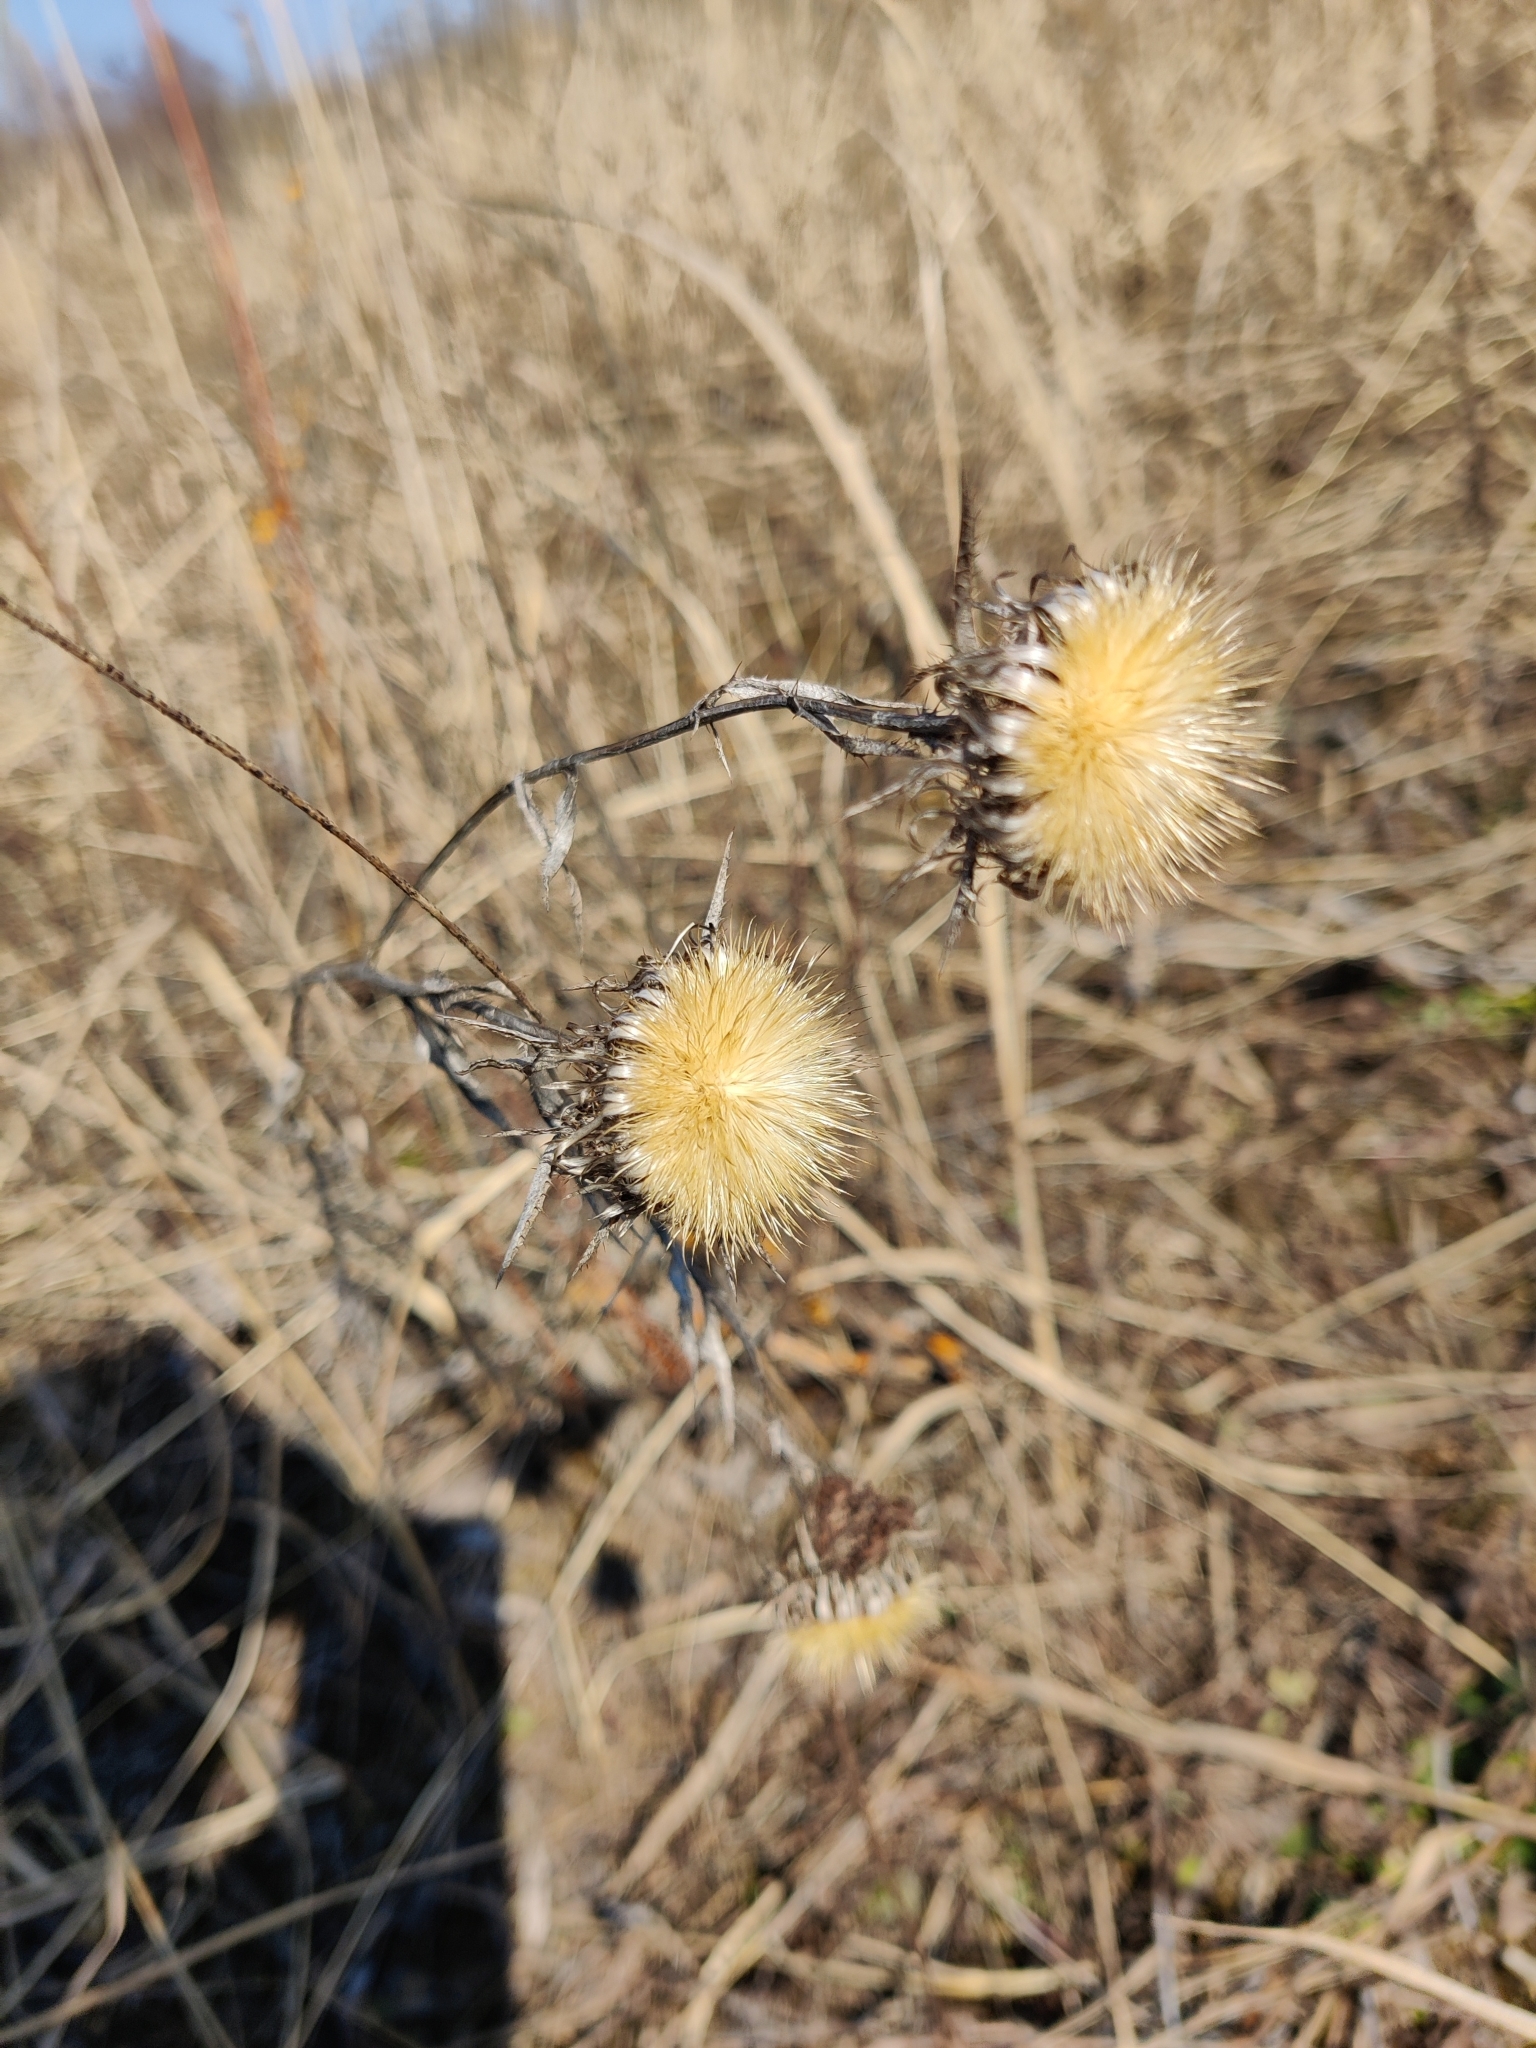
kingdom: Plantae
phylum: Tracheophyta
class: Magnoliopsida
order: Asterales
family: Asteraceae
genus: Carlina
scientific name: Carlina biebersteinii
